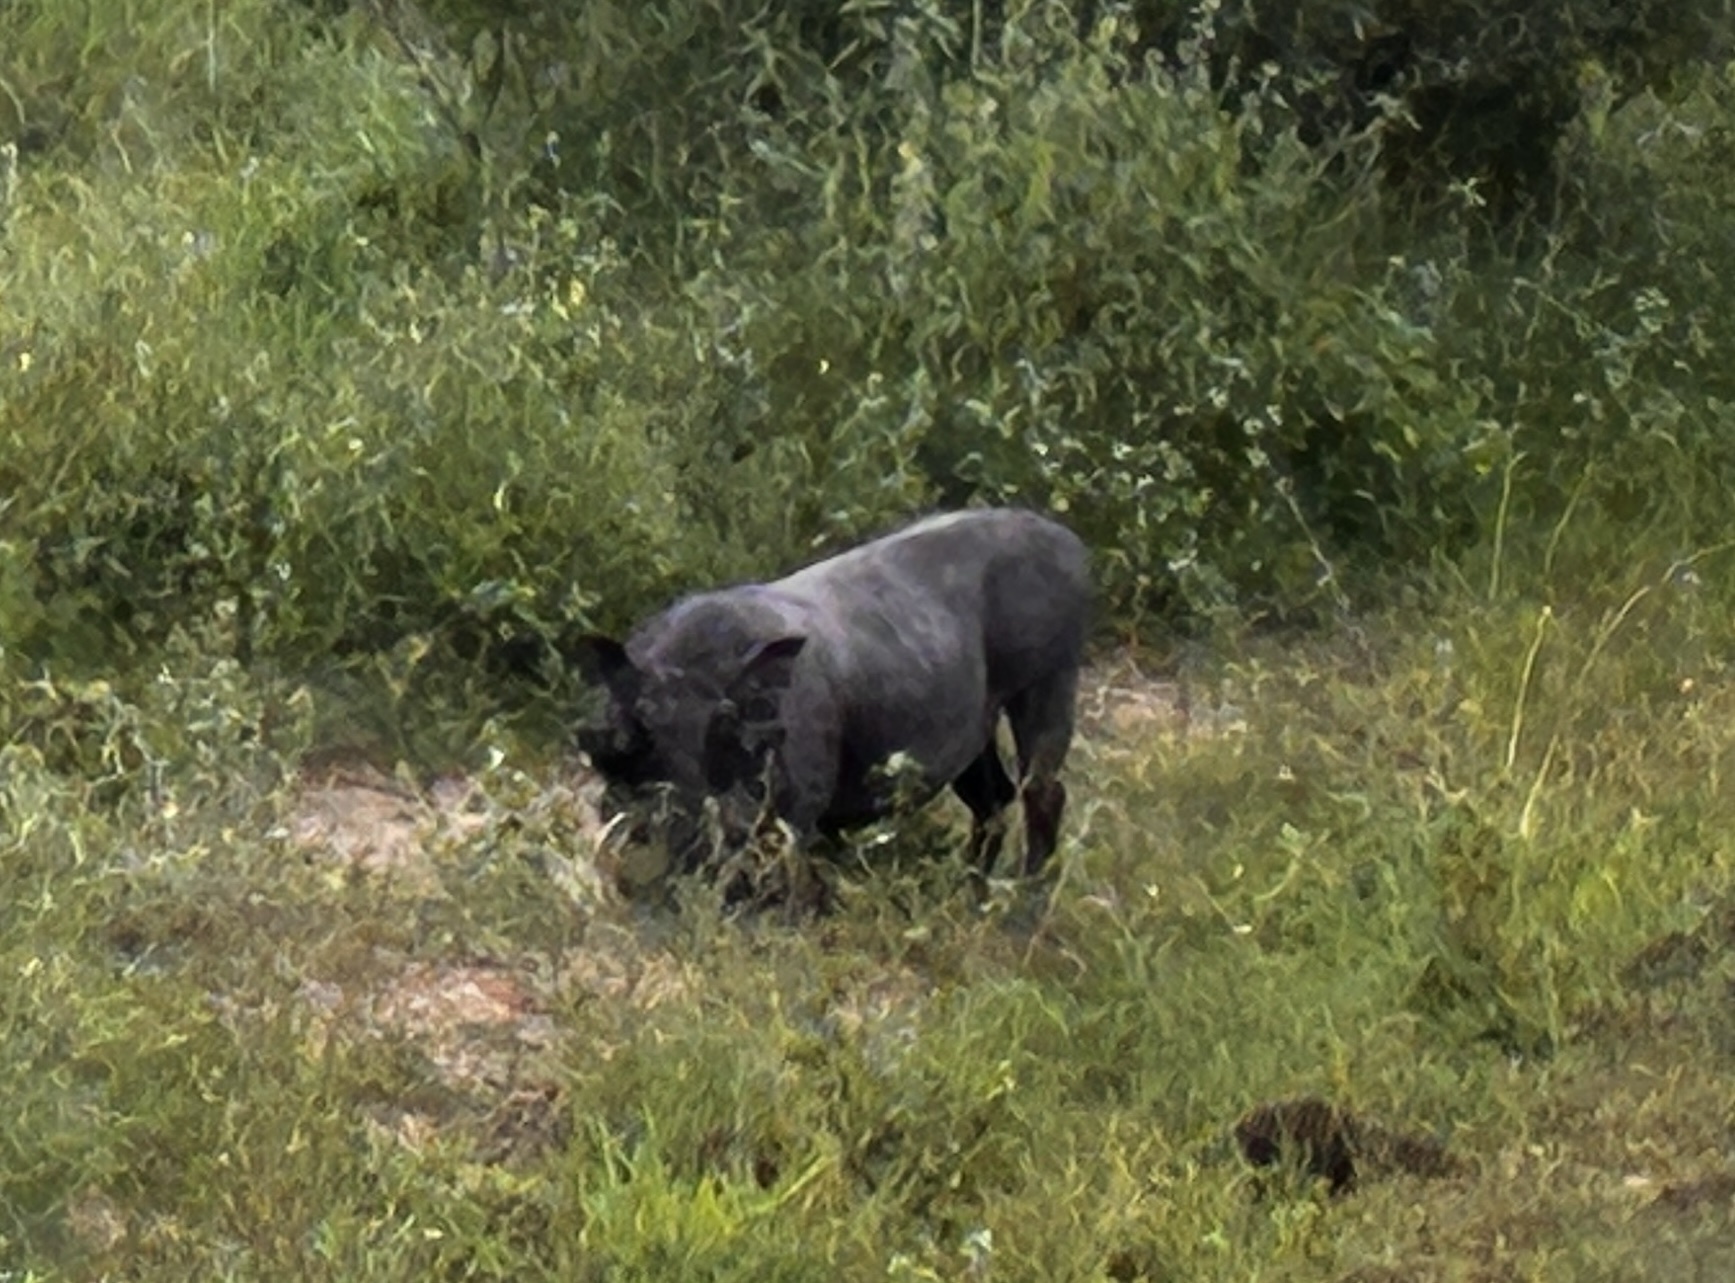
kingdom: Animalia
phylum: Chordata
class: Mammalia
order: Artiodactyla
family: Suidae
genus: Phacochoerus
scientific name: Phacochoerus africanus
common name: Common warthog
